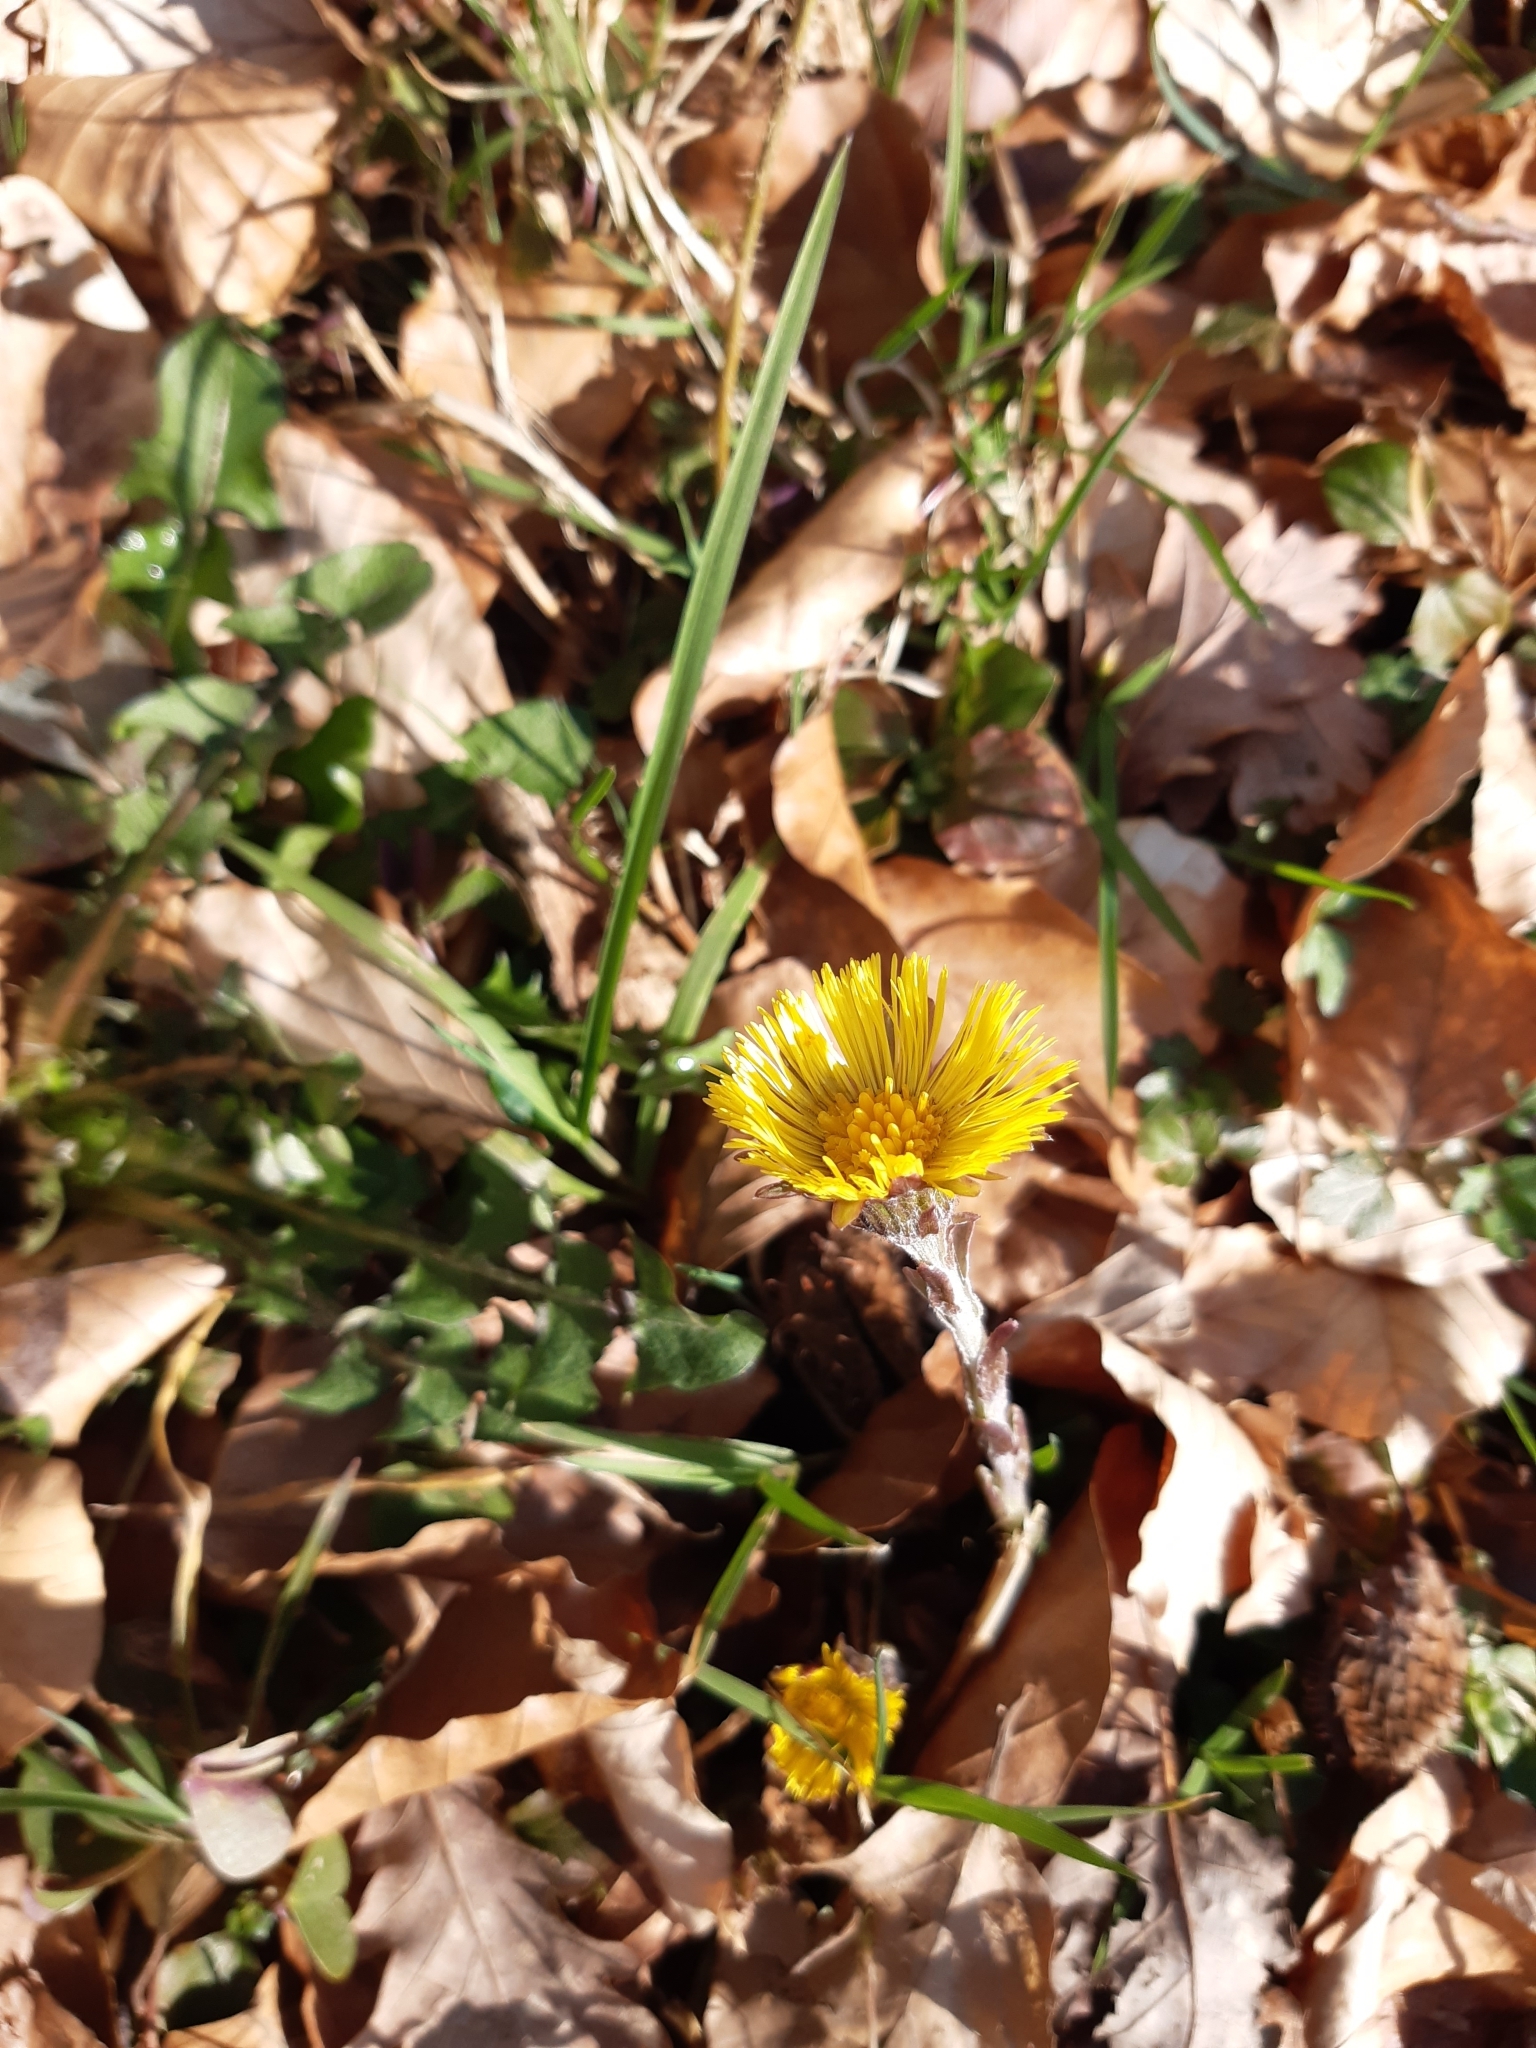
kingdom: Plantae
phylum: Tracheophyta
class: Magnoliopsida
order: Asterales
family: Asteraceae
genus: Tussilago
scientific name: Tussilago farfara
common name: Coltsfoot
